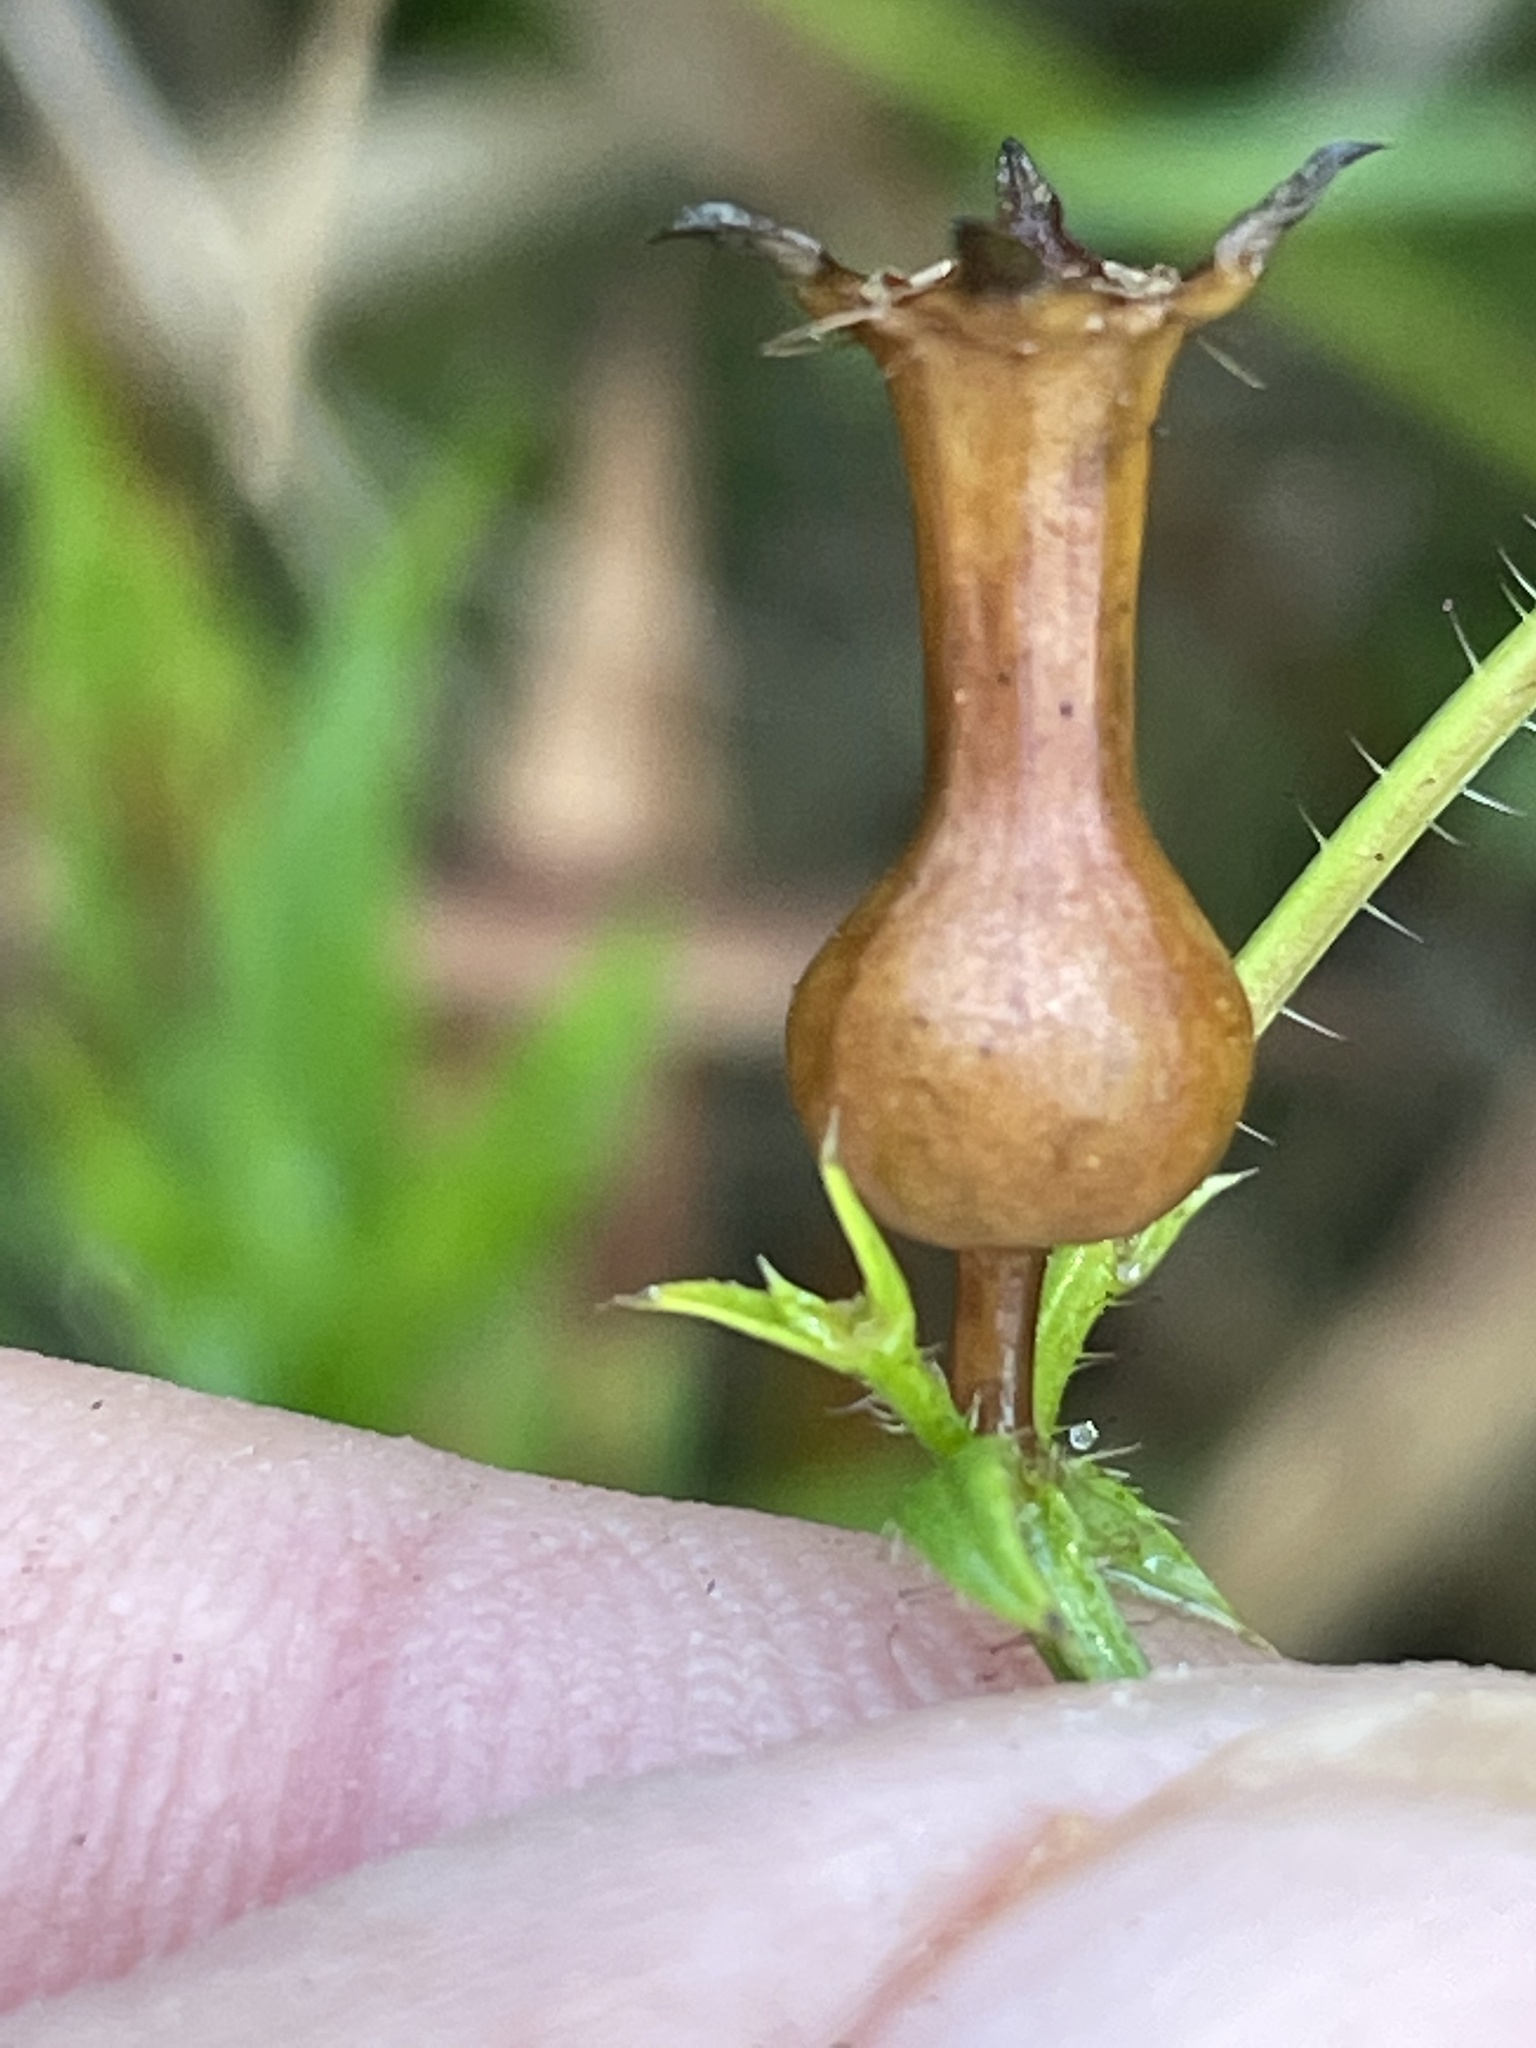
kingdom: Plantae
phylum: Tracheophyta
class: Magnoliopsida
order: Myrtales
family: Melastomataceae
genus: Rhexia
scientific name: Rhexia nashii
